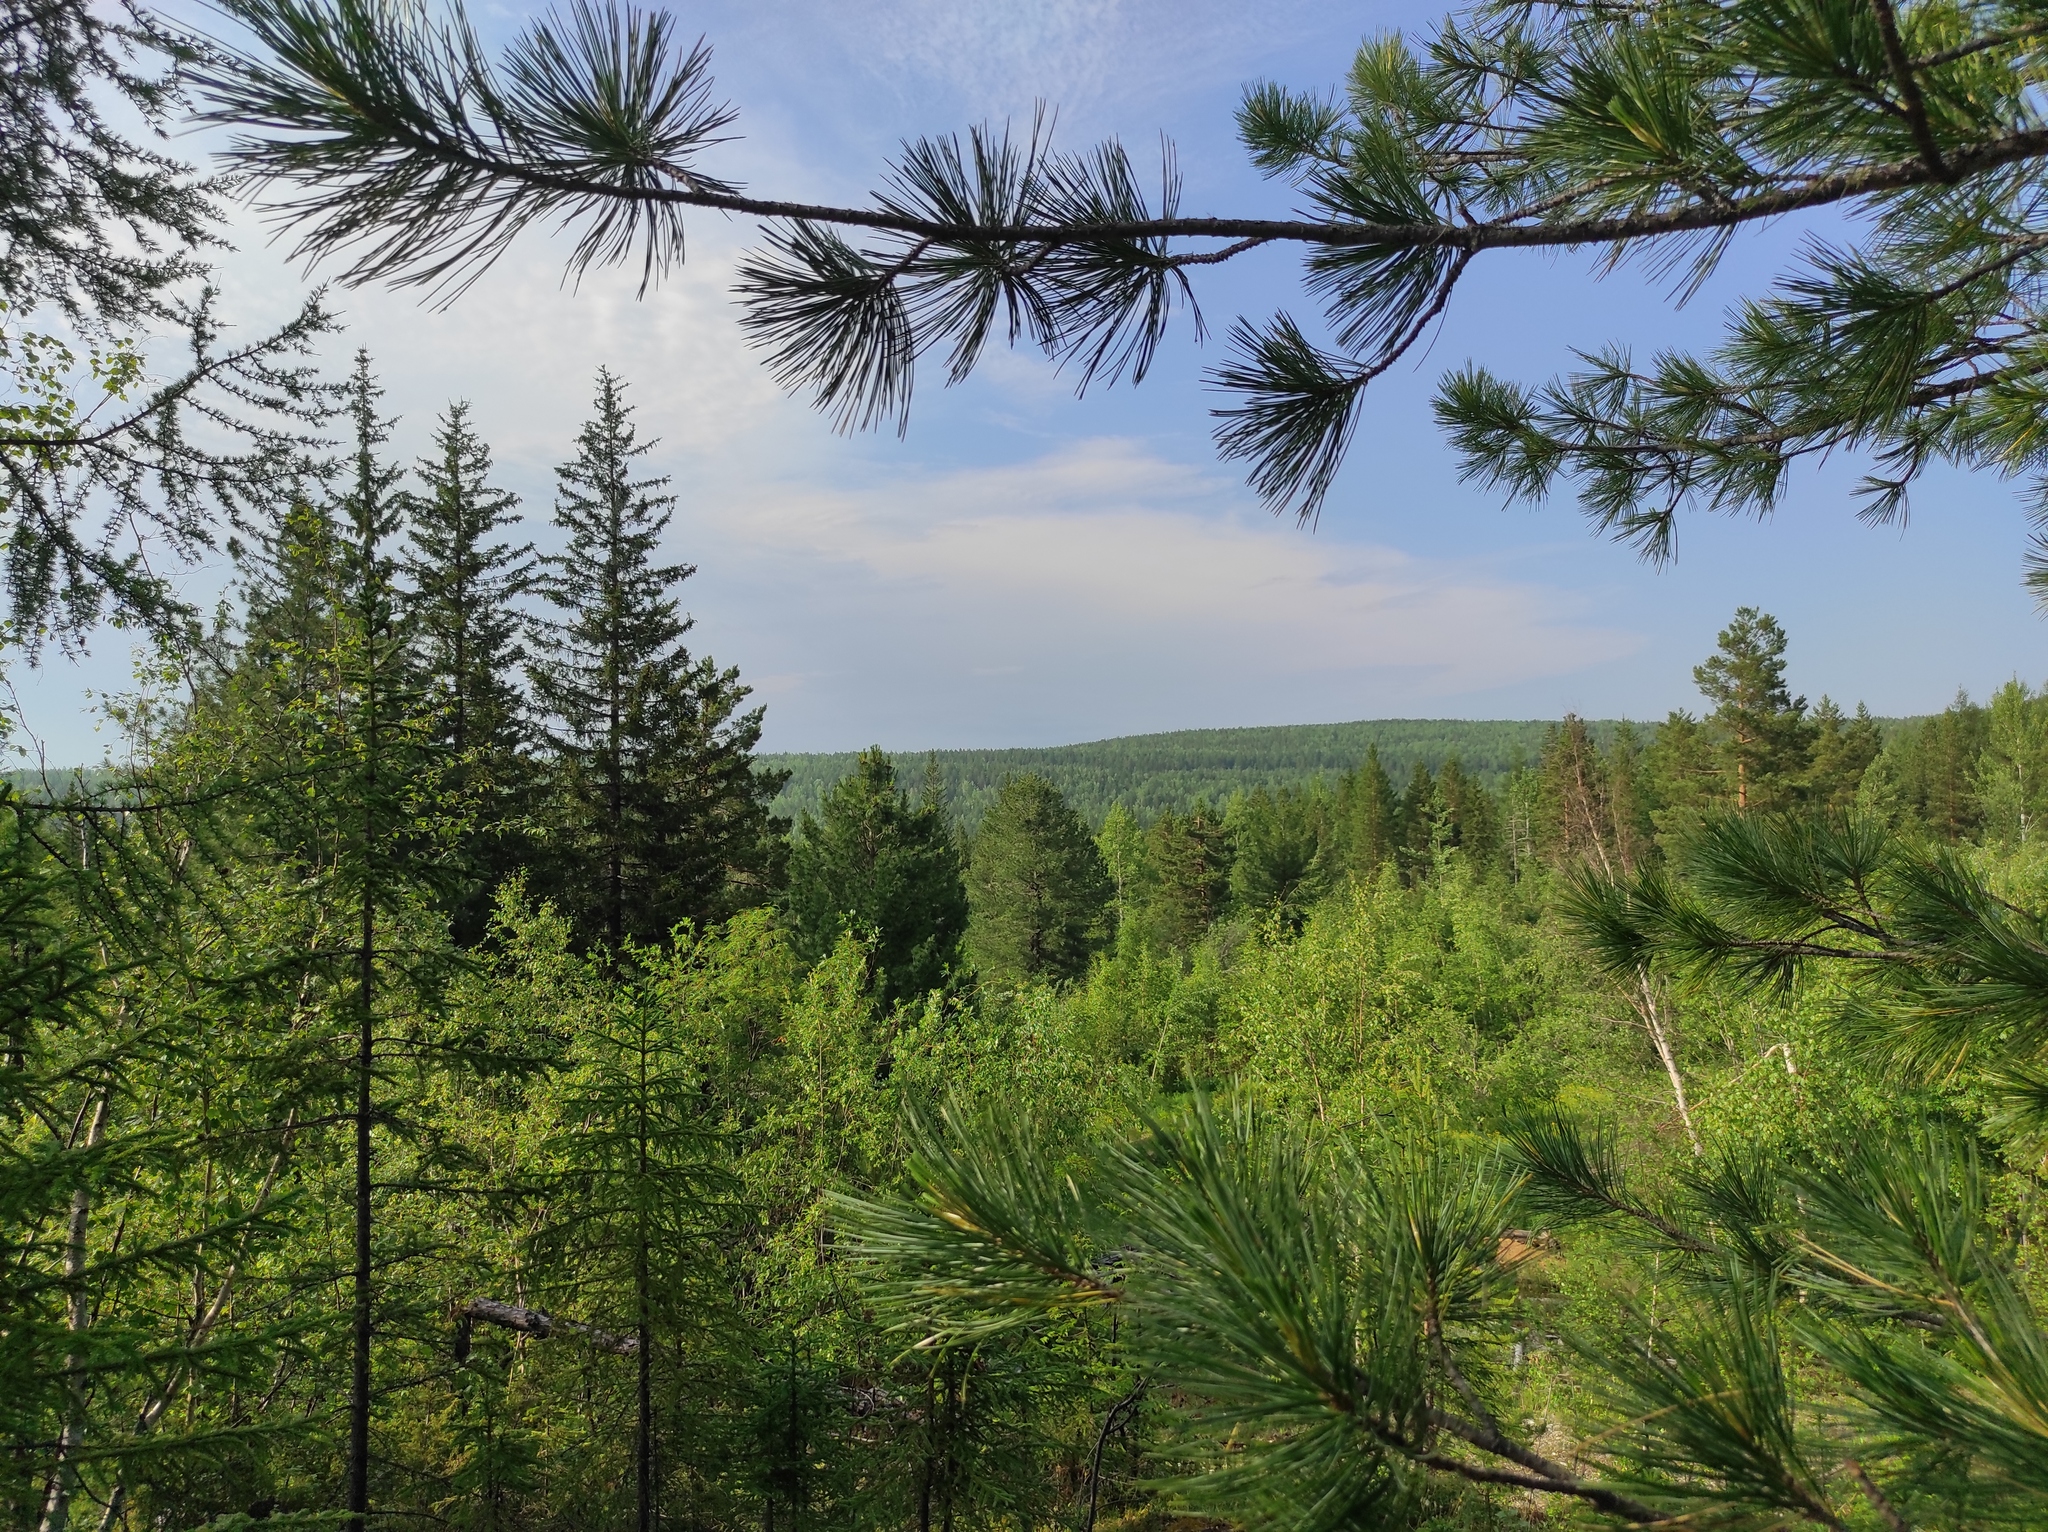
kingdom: Plantae
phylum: Tracheophyta
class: Pinopsida
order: Pinales
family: Pinaceae
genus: Larix
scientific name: Larix gmelinii
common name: Dahurian larch
